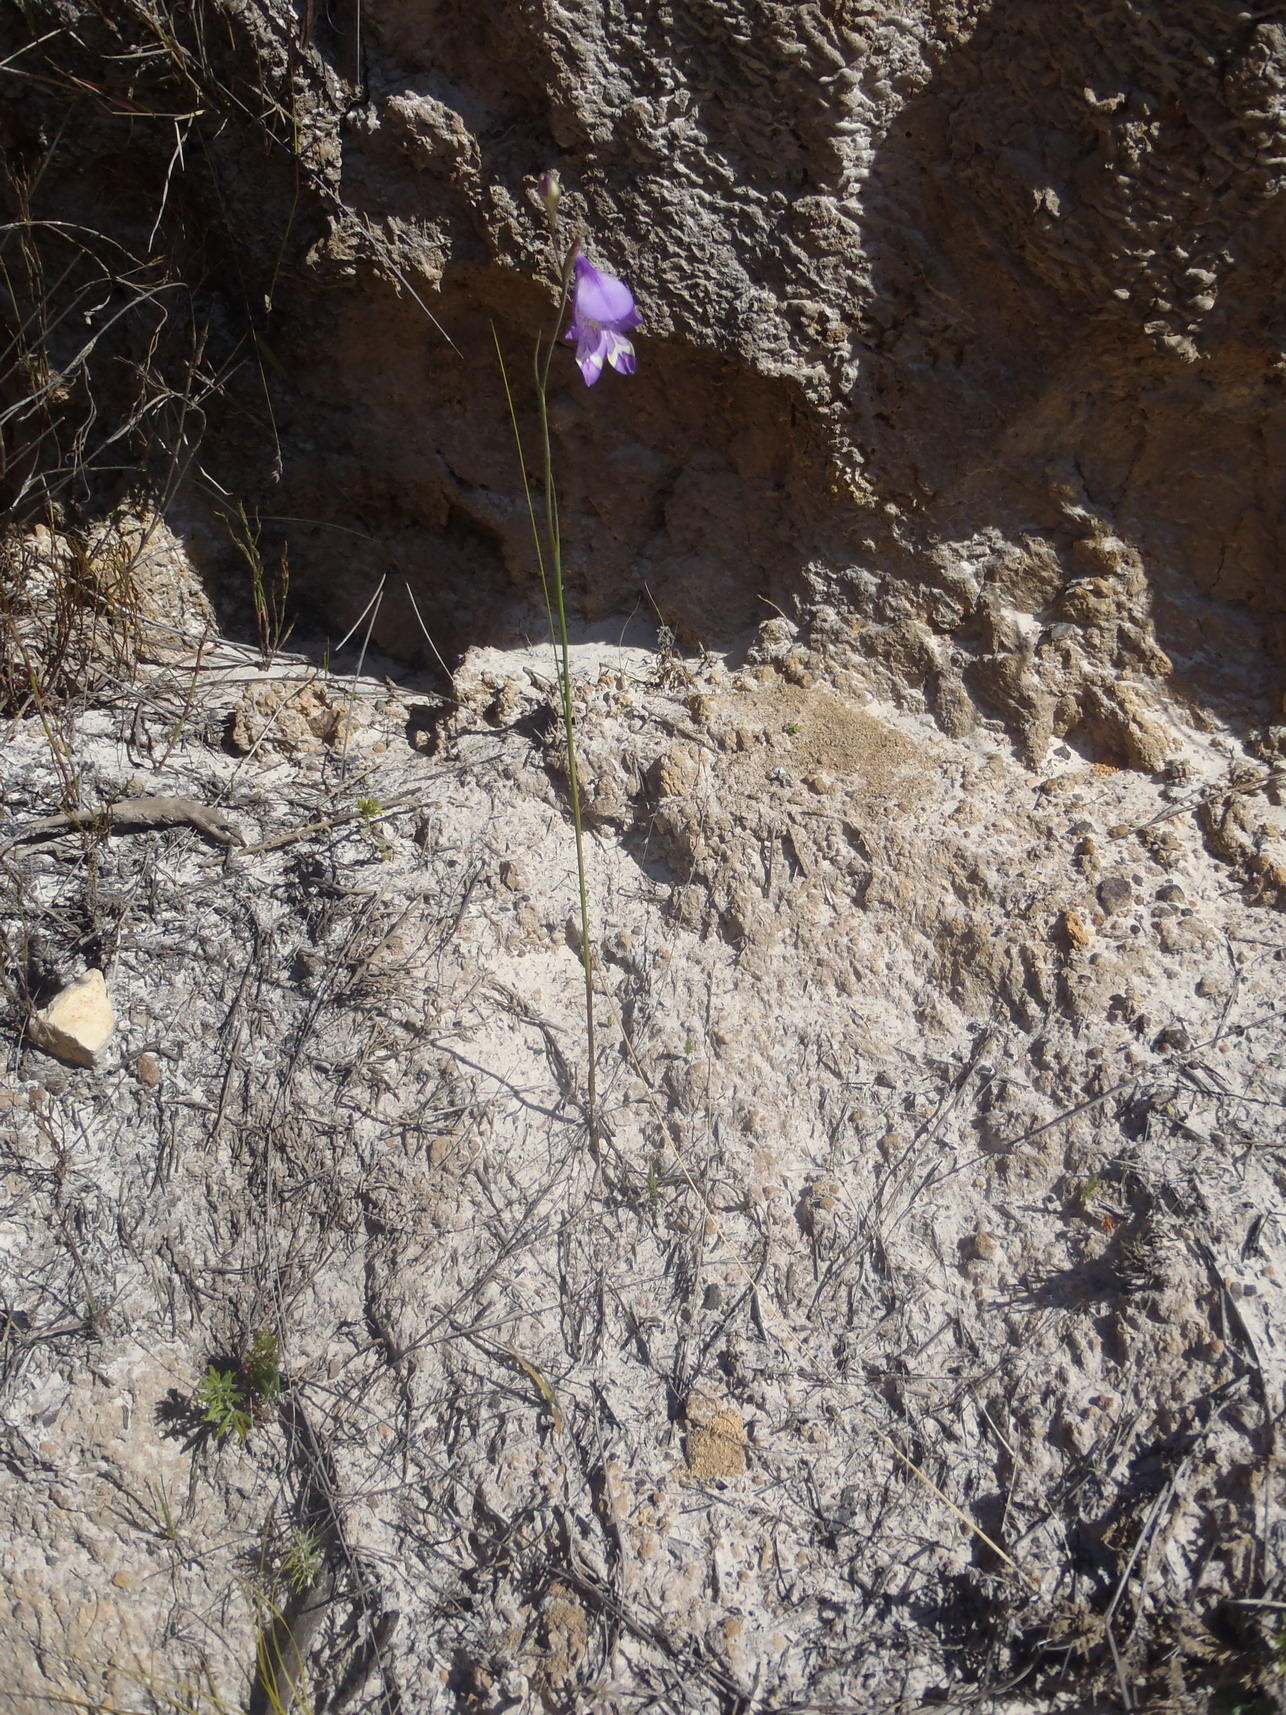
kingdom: Plantae
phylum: Tracheophyta
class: Liliopsida
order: Asparagales
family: Iridaceae
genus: Gladiolus
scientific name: Gladiolus rogersii
